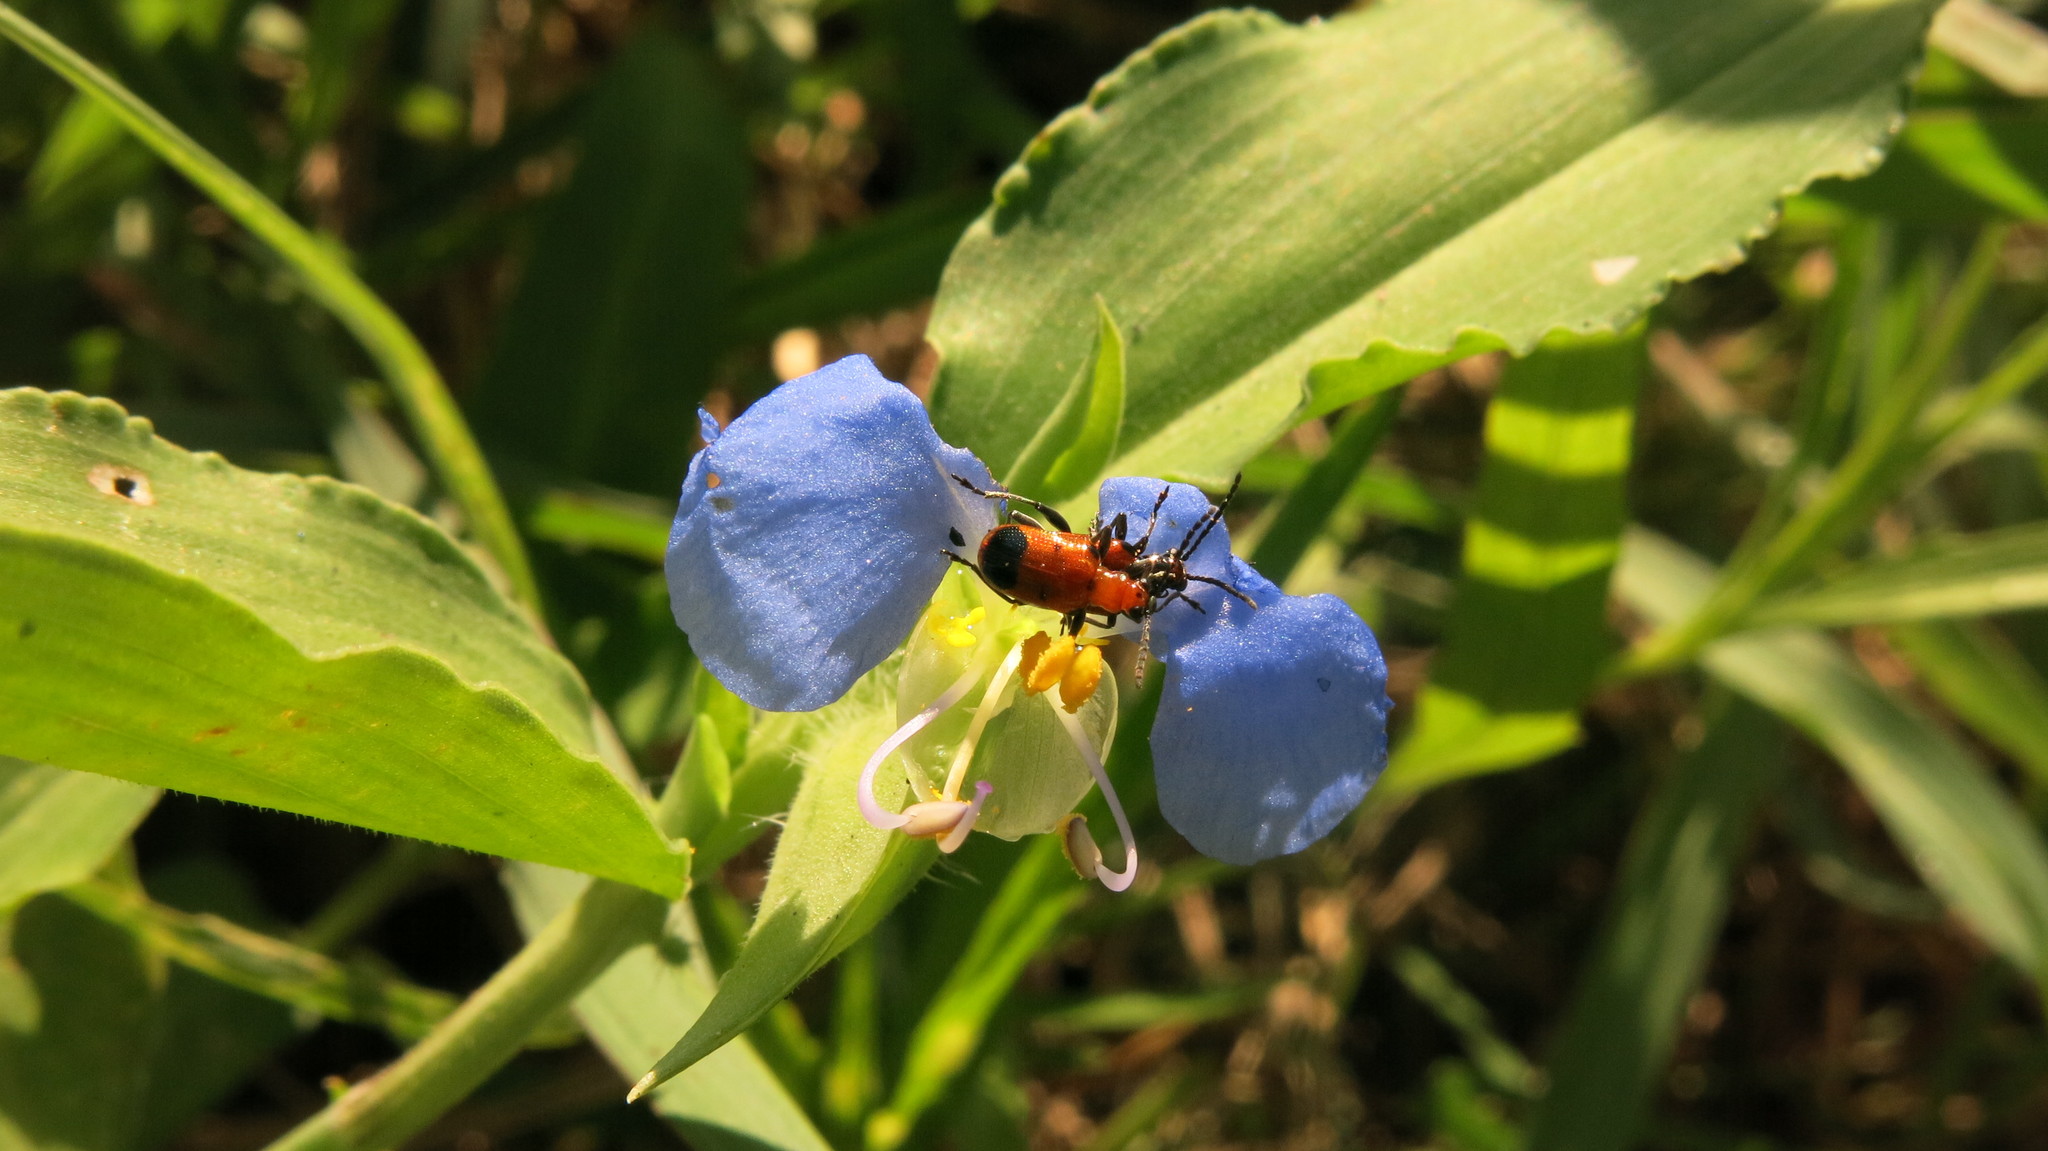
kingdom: Plantae
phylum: Tracheophyta
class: Liliopsida
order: Commelinales
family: Commelinaceae
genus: Commelina
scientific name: Commelina erecta
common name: Blousel blommetjie
